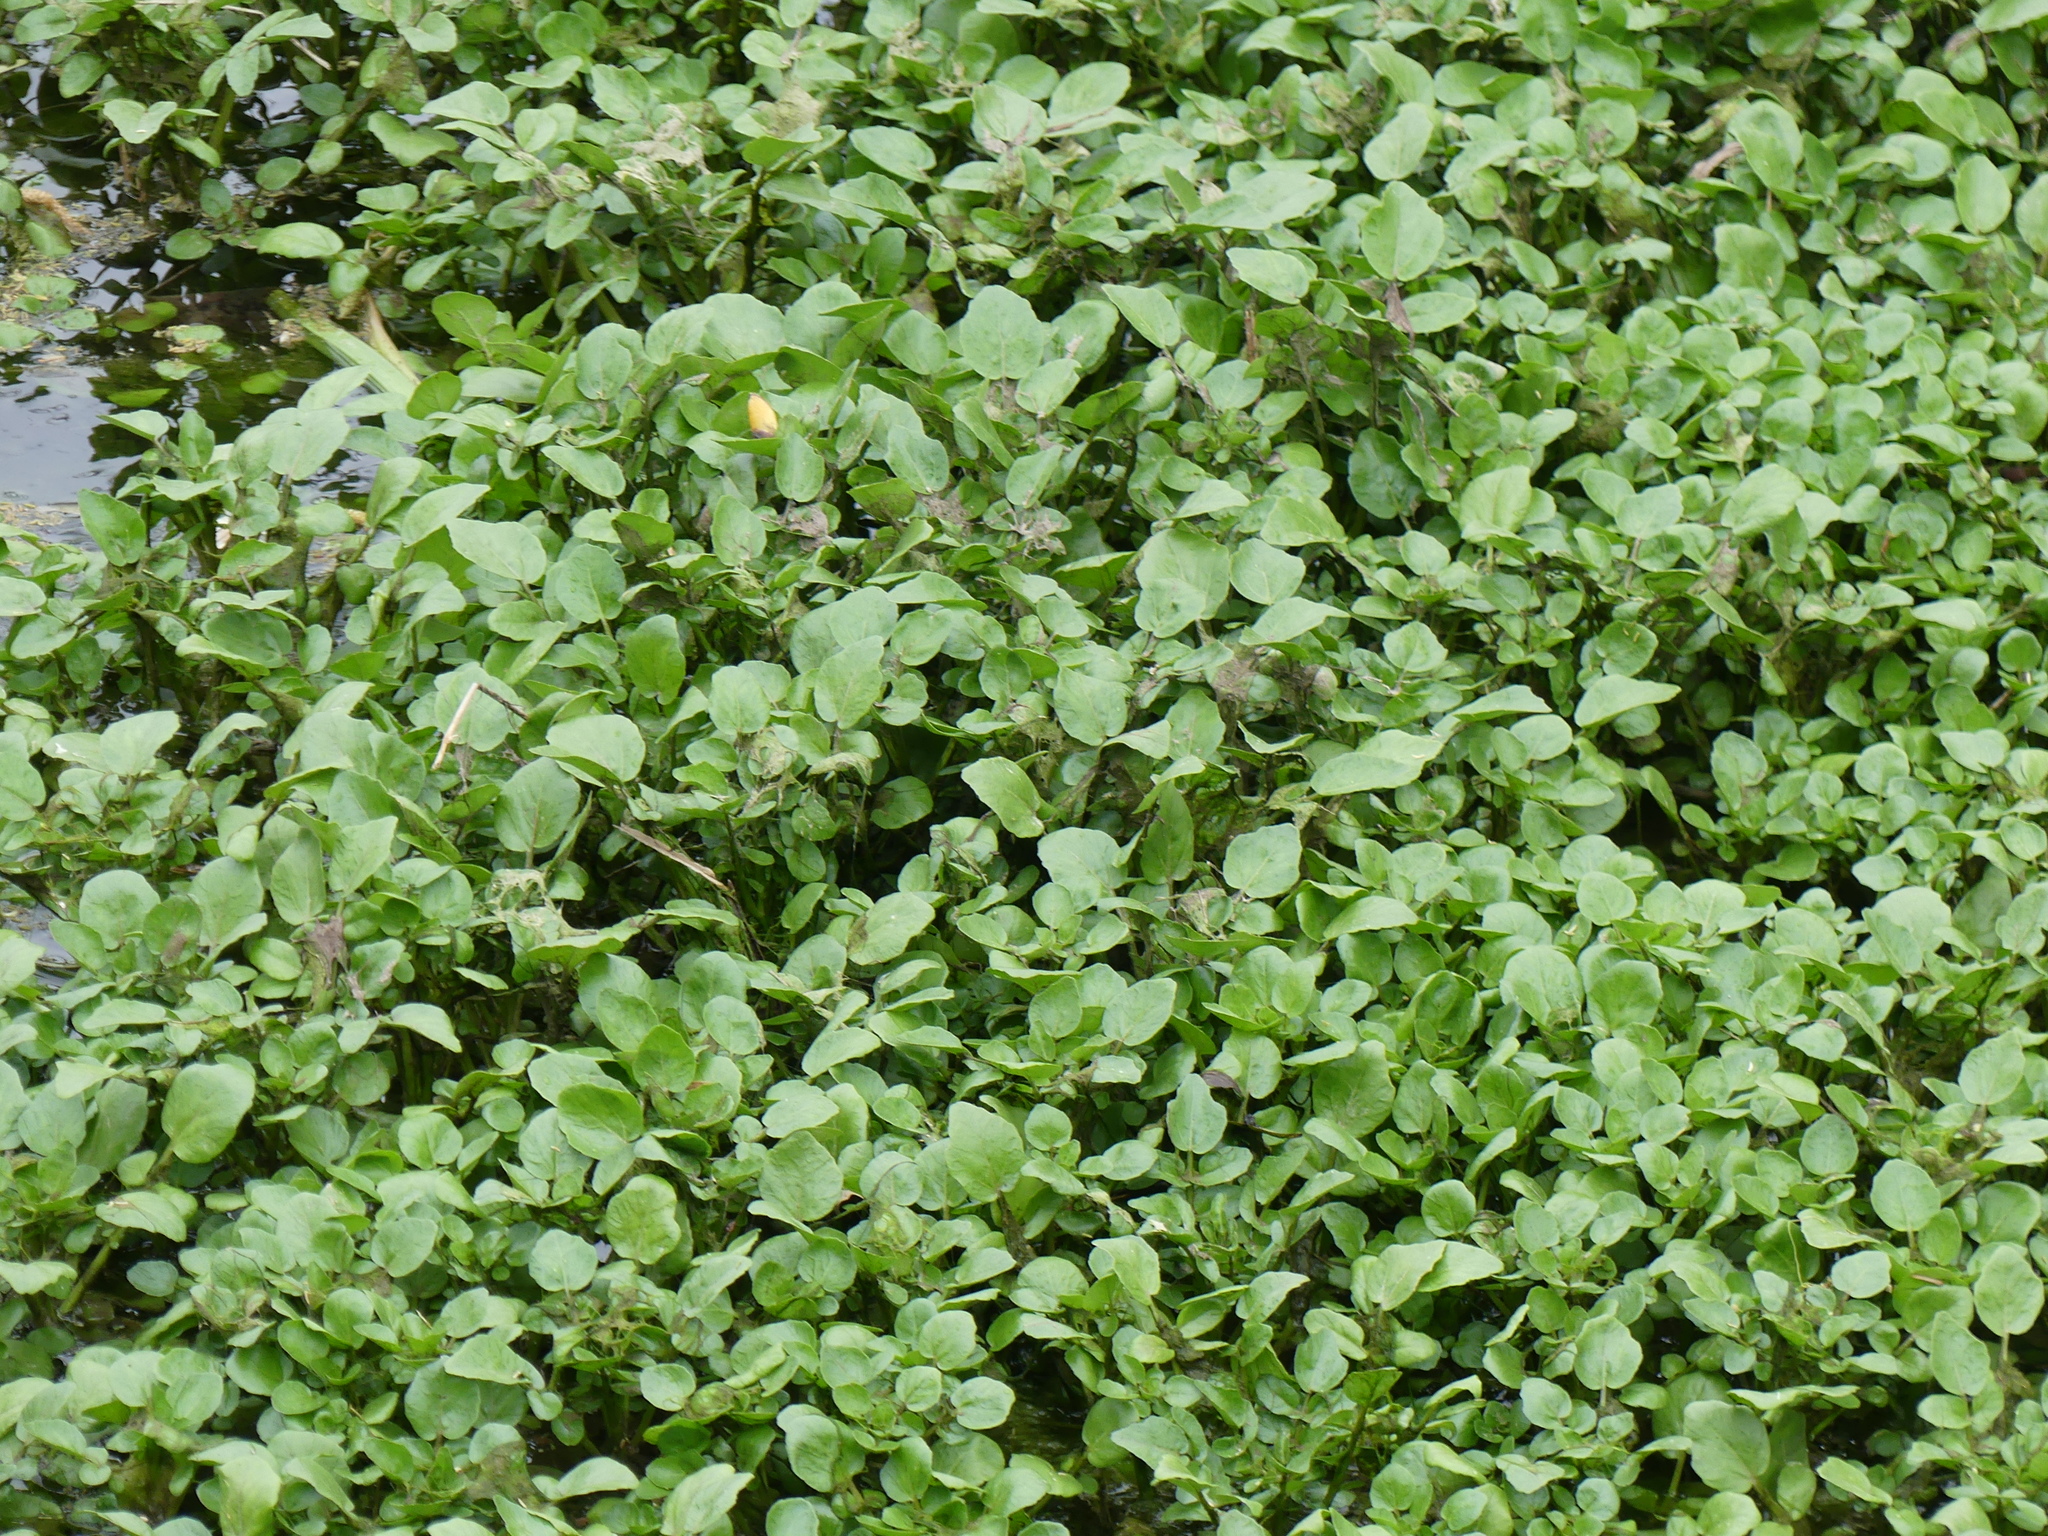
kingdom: Plantae
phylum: Tracheophyta
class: Magnoliopsida
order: Brassicales
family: Brassicaceae
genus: Nasturtium
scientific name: Nasturtium officinale
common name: Watercress
